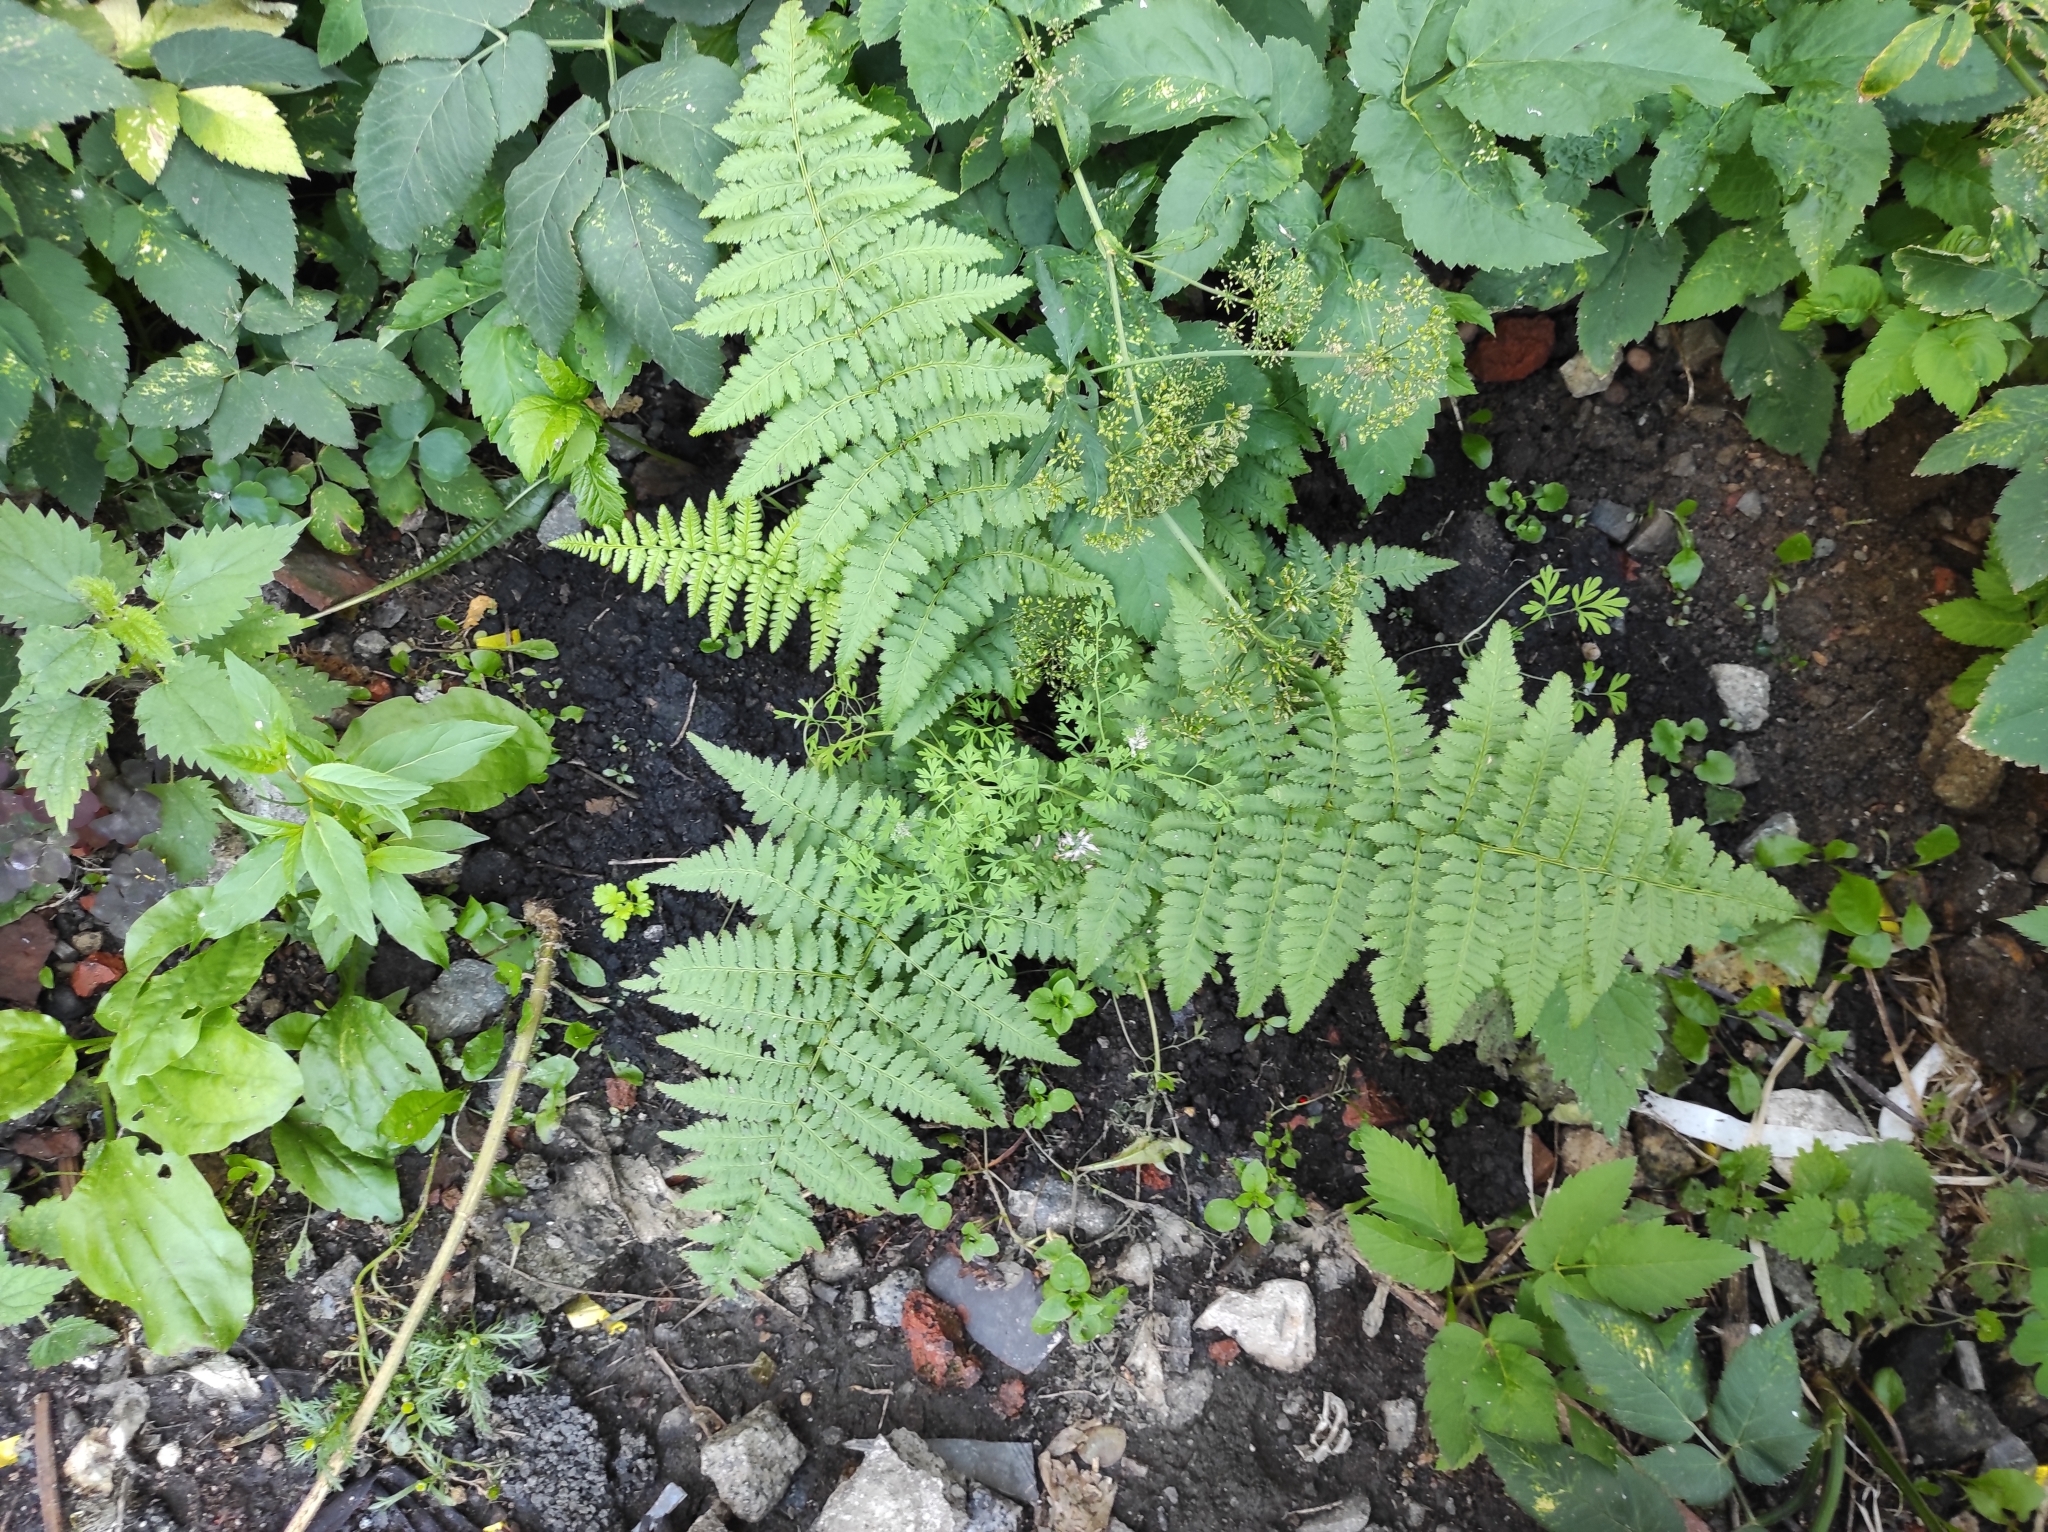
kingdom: Plantae
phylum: Tracheophyta
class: Polypodiopsida
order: Polypodiales
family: Dryopteridaceae
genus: Dryopteris
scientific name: Dryopteris filix-mas
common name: Male fern
